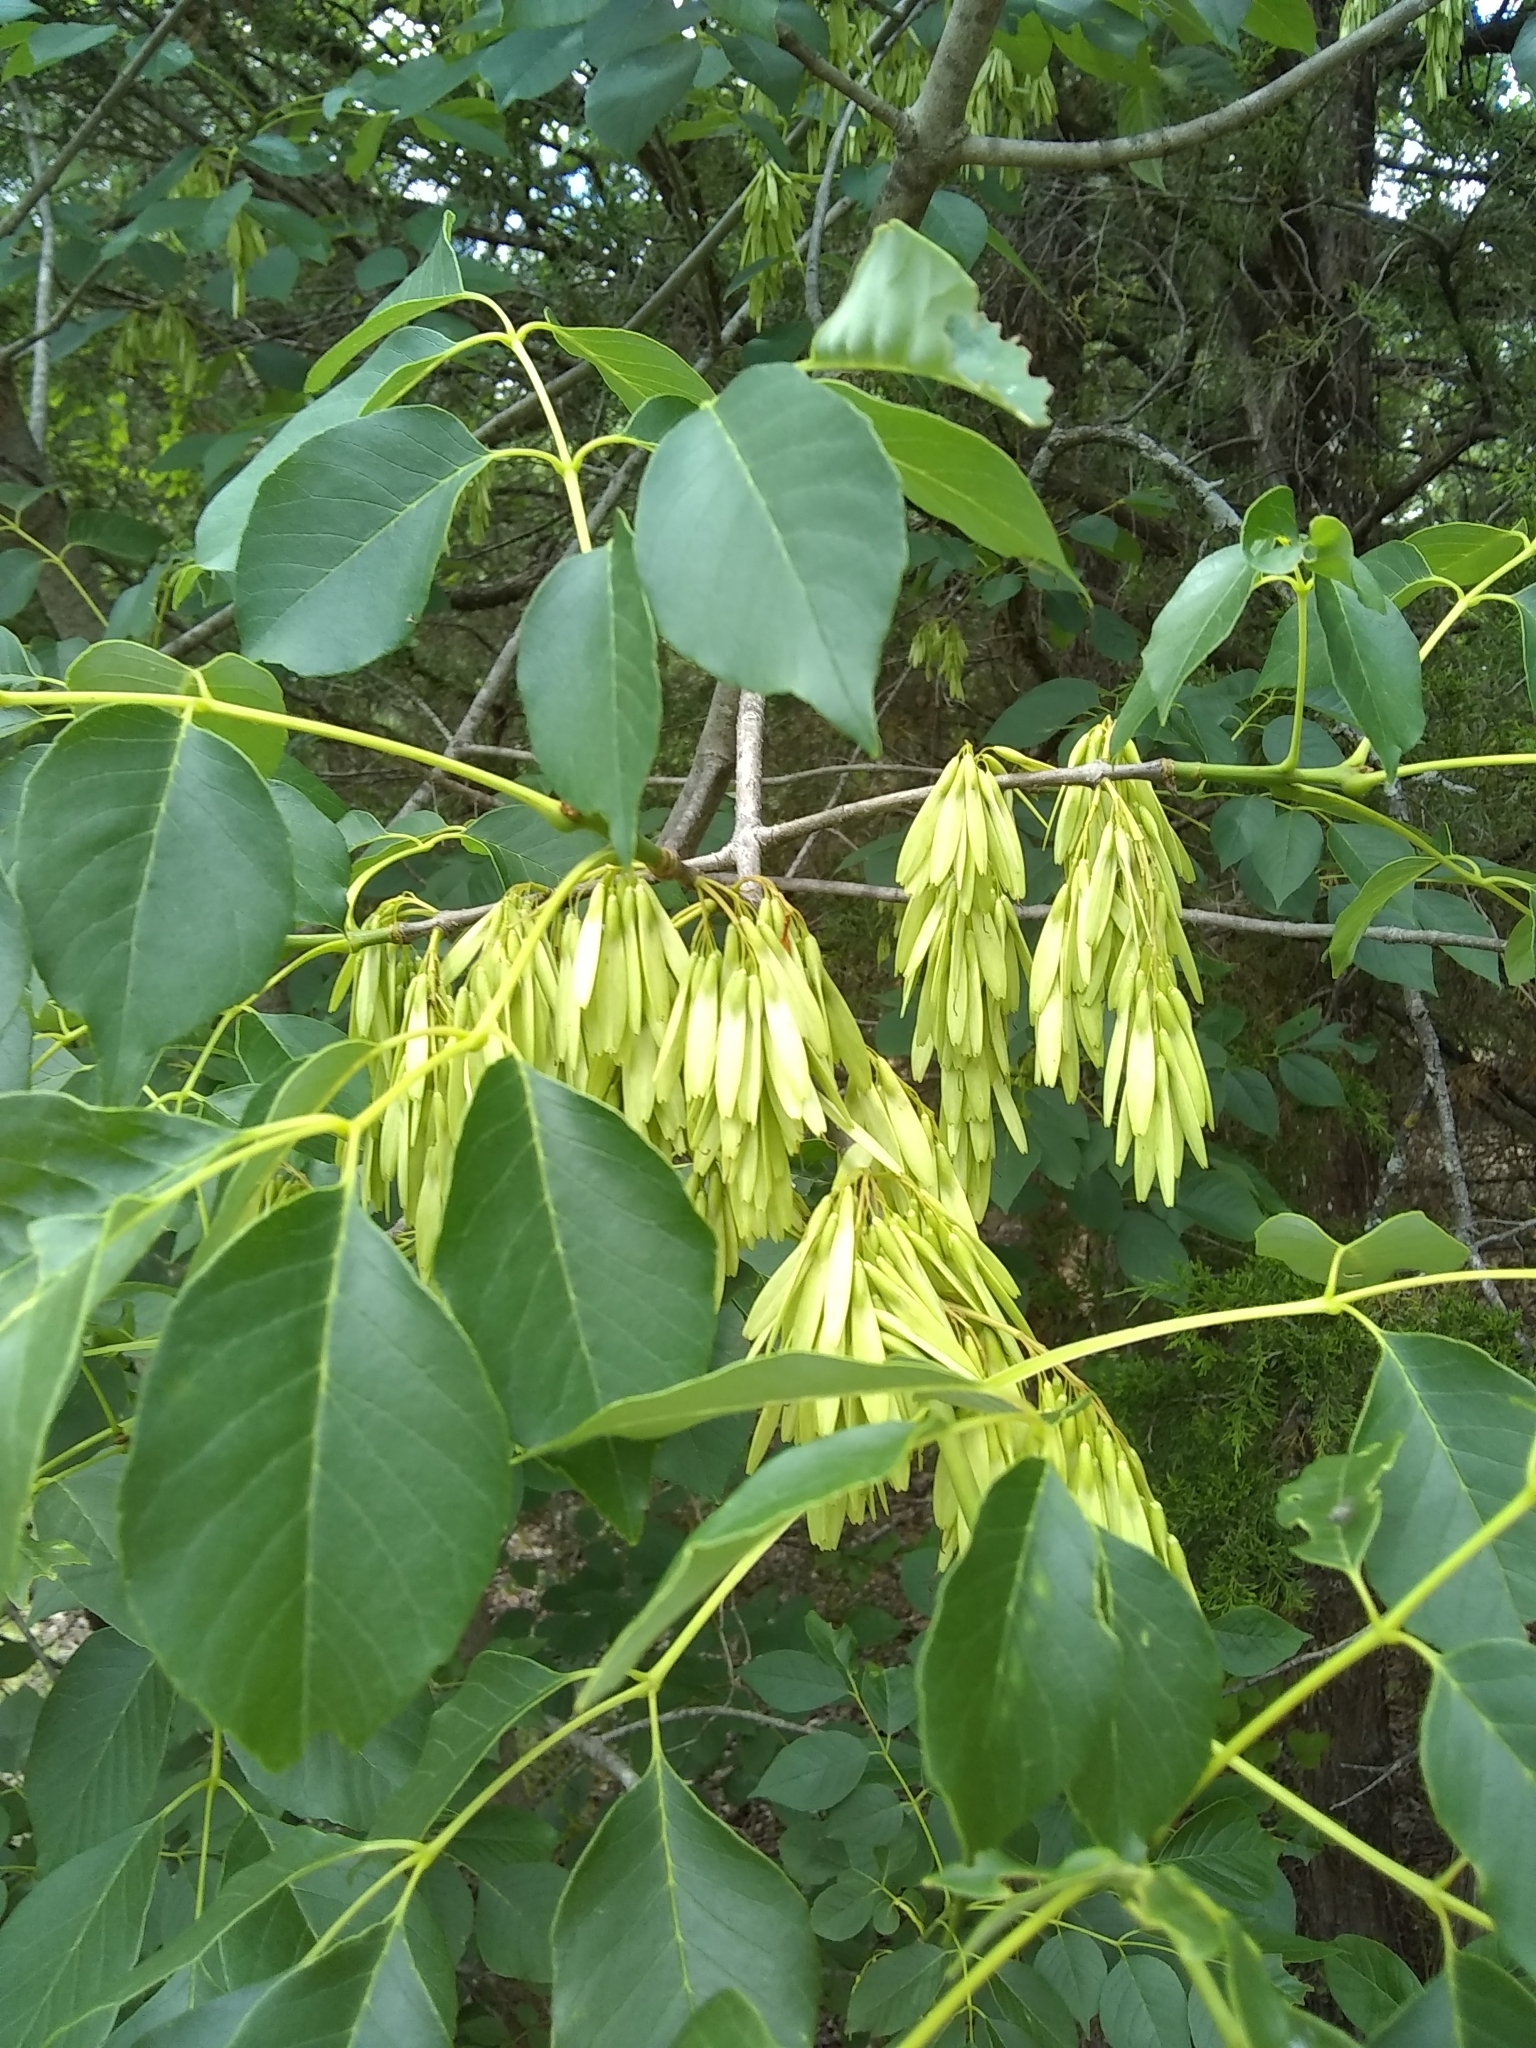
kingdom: Plantae
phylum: Tracheophyta
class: Magnoliopsida
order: Lamiales
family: Oleaceae
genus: Fraxinus
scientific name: Fraxinus albicans
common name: Texas ash
